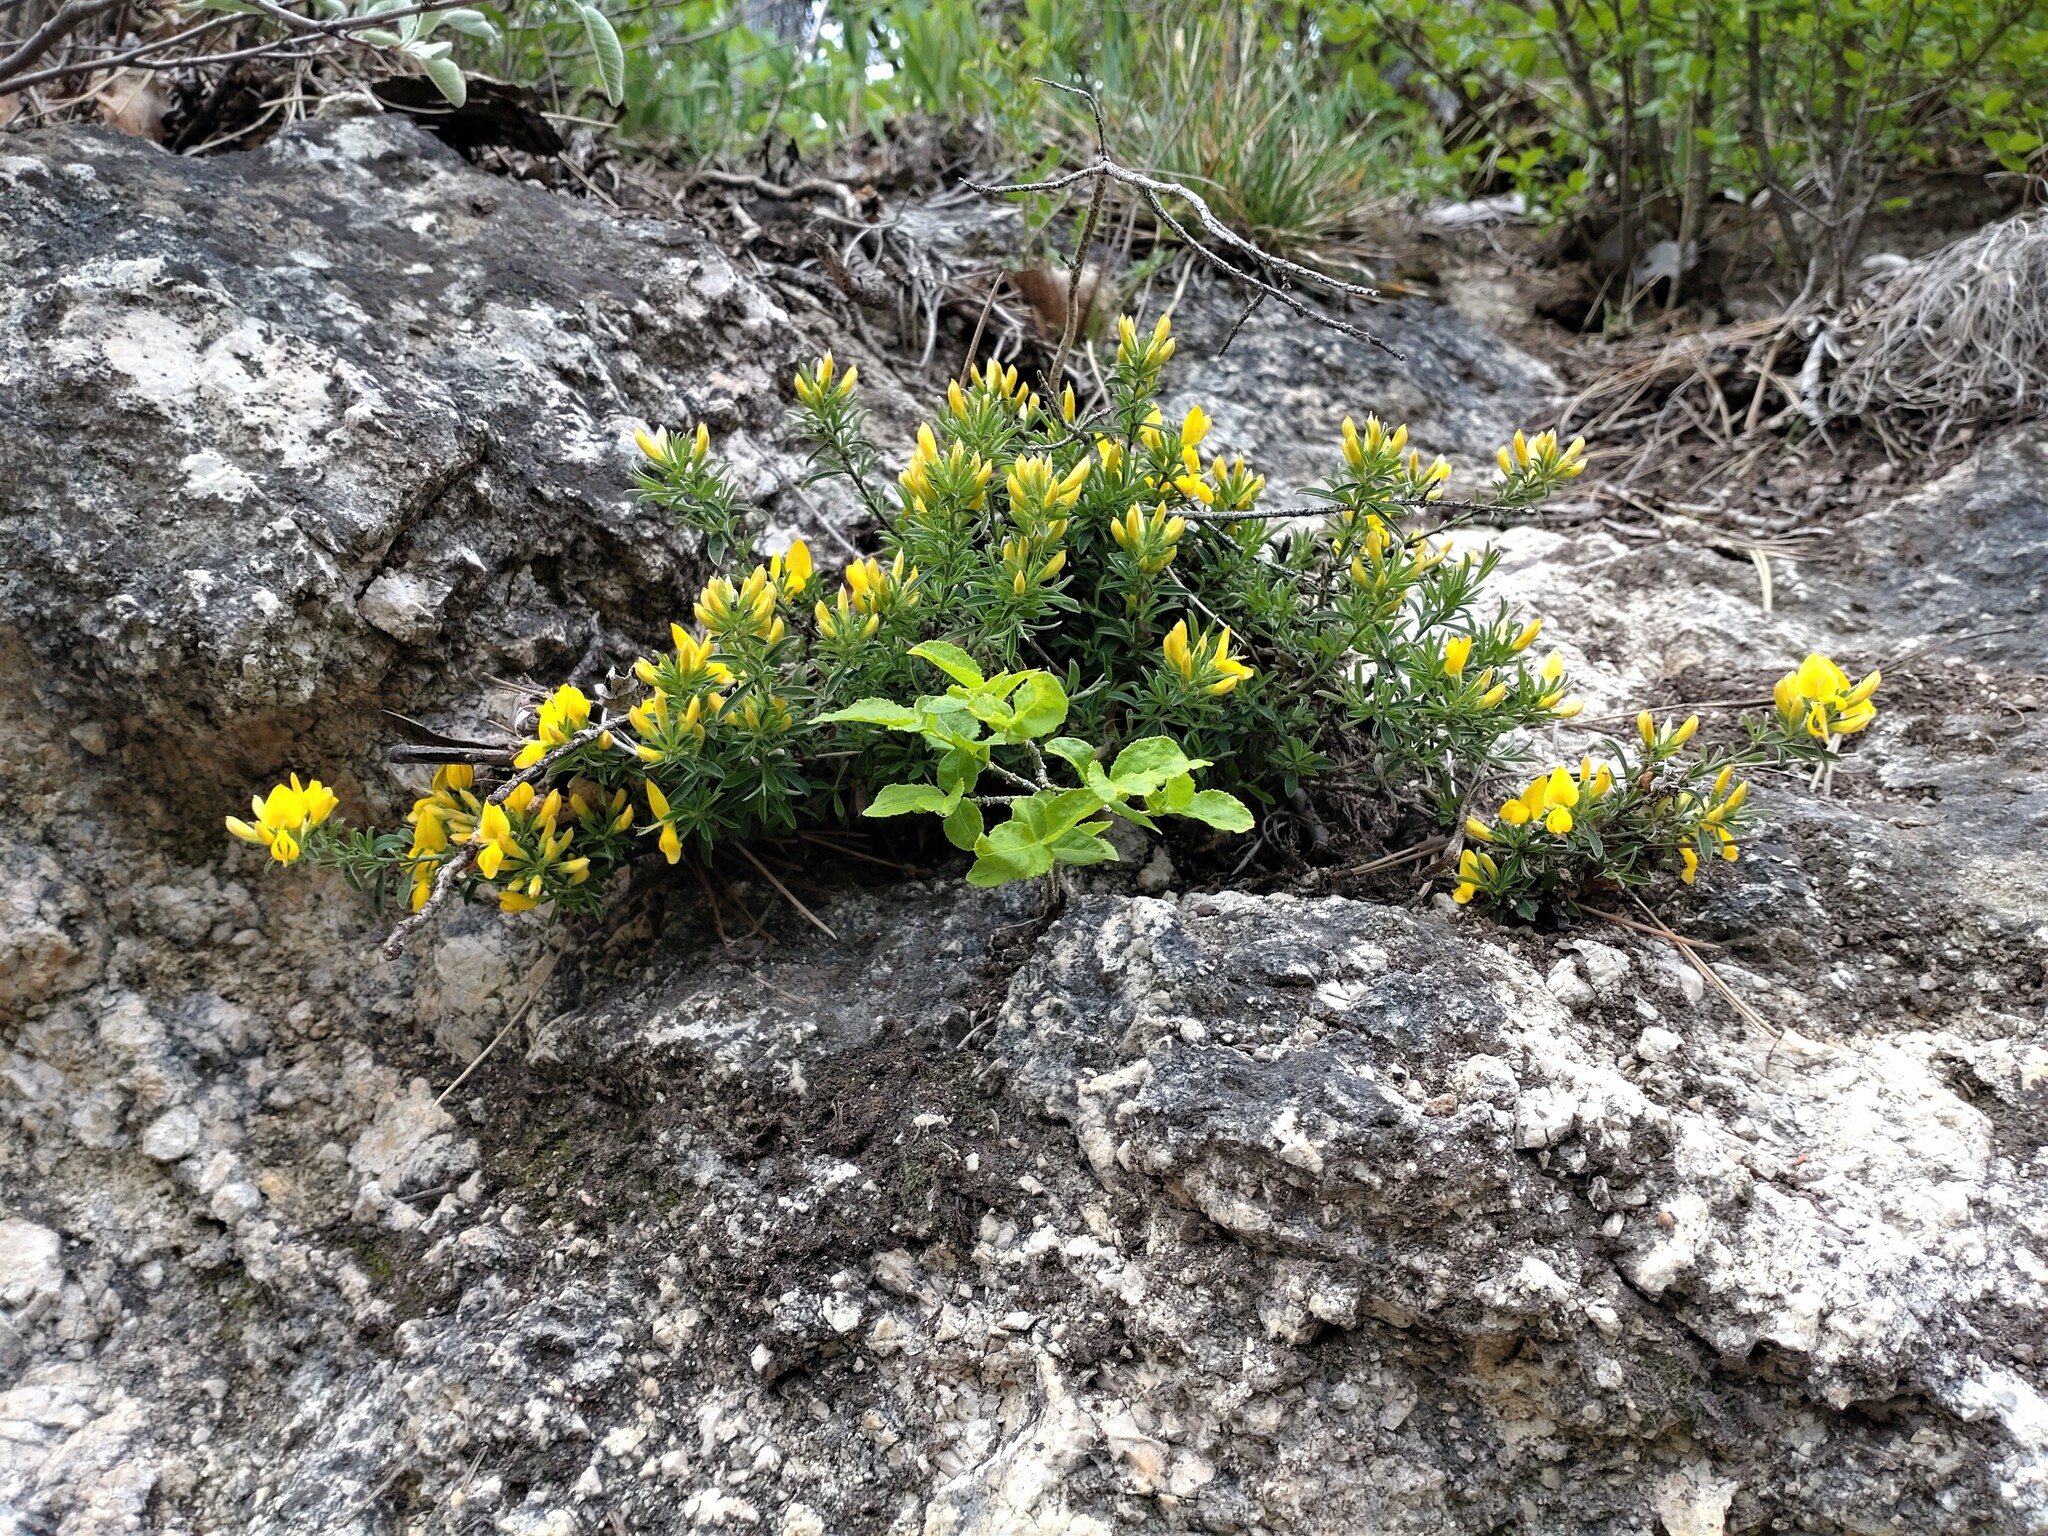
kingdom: Plantae
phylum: Tracheophyta
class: Magnoliopsida
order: Fabales
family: Fabaceae
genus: Genista
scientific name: Genista pilosa
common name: Hairy greenweed
